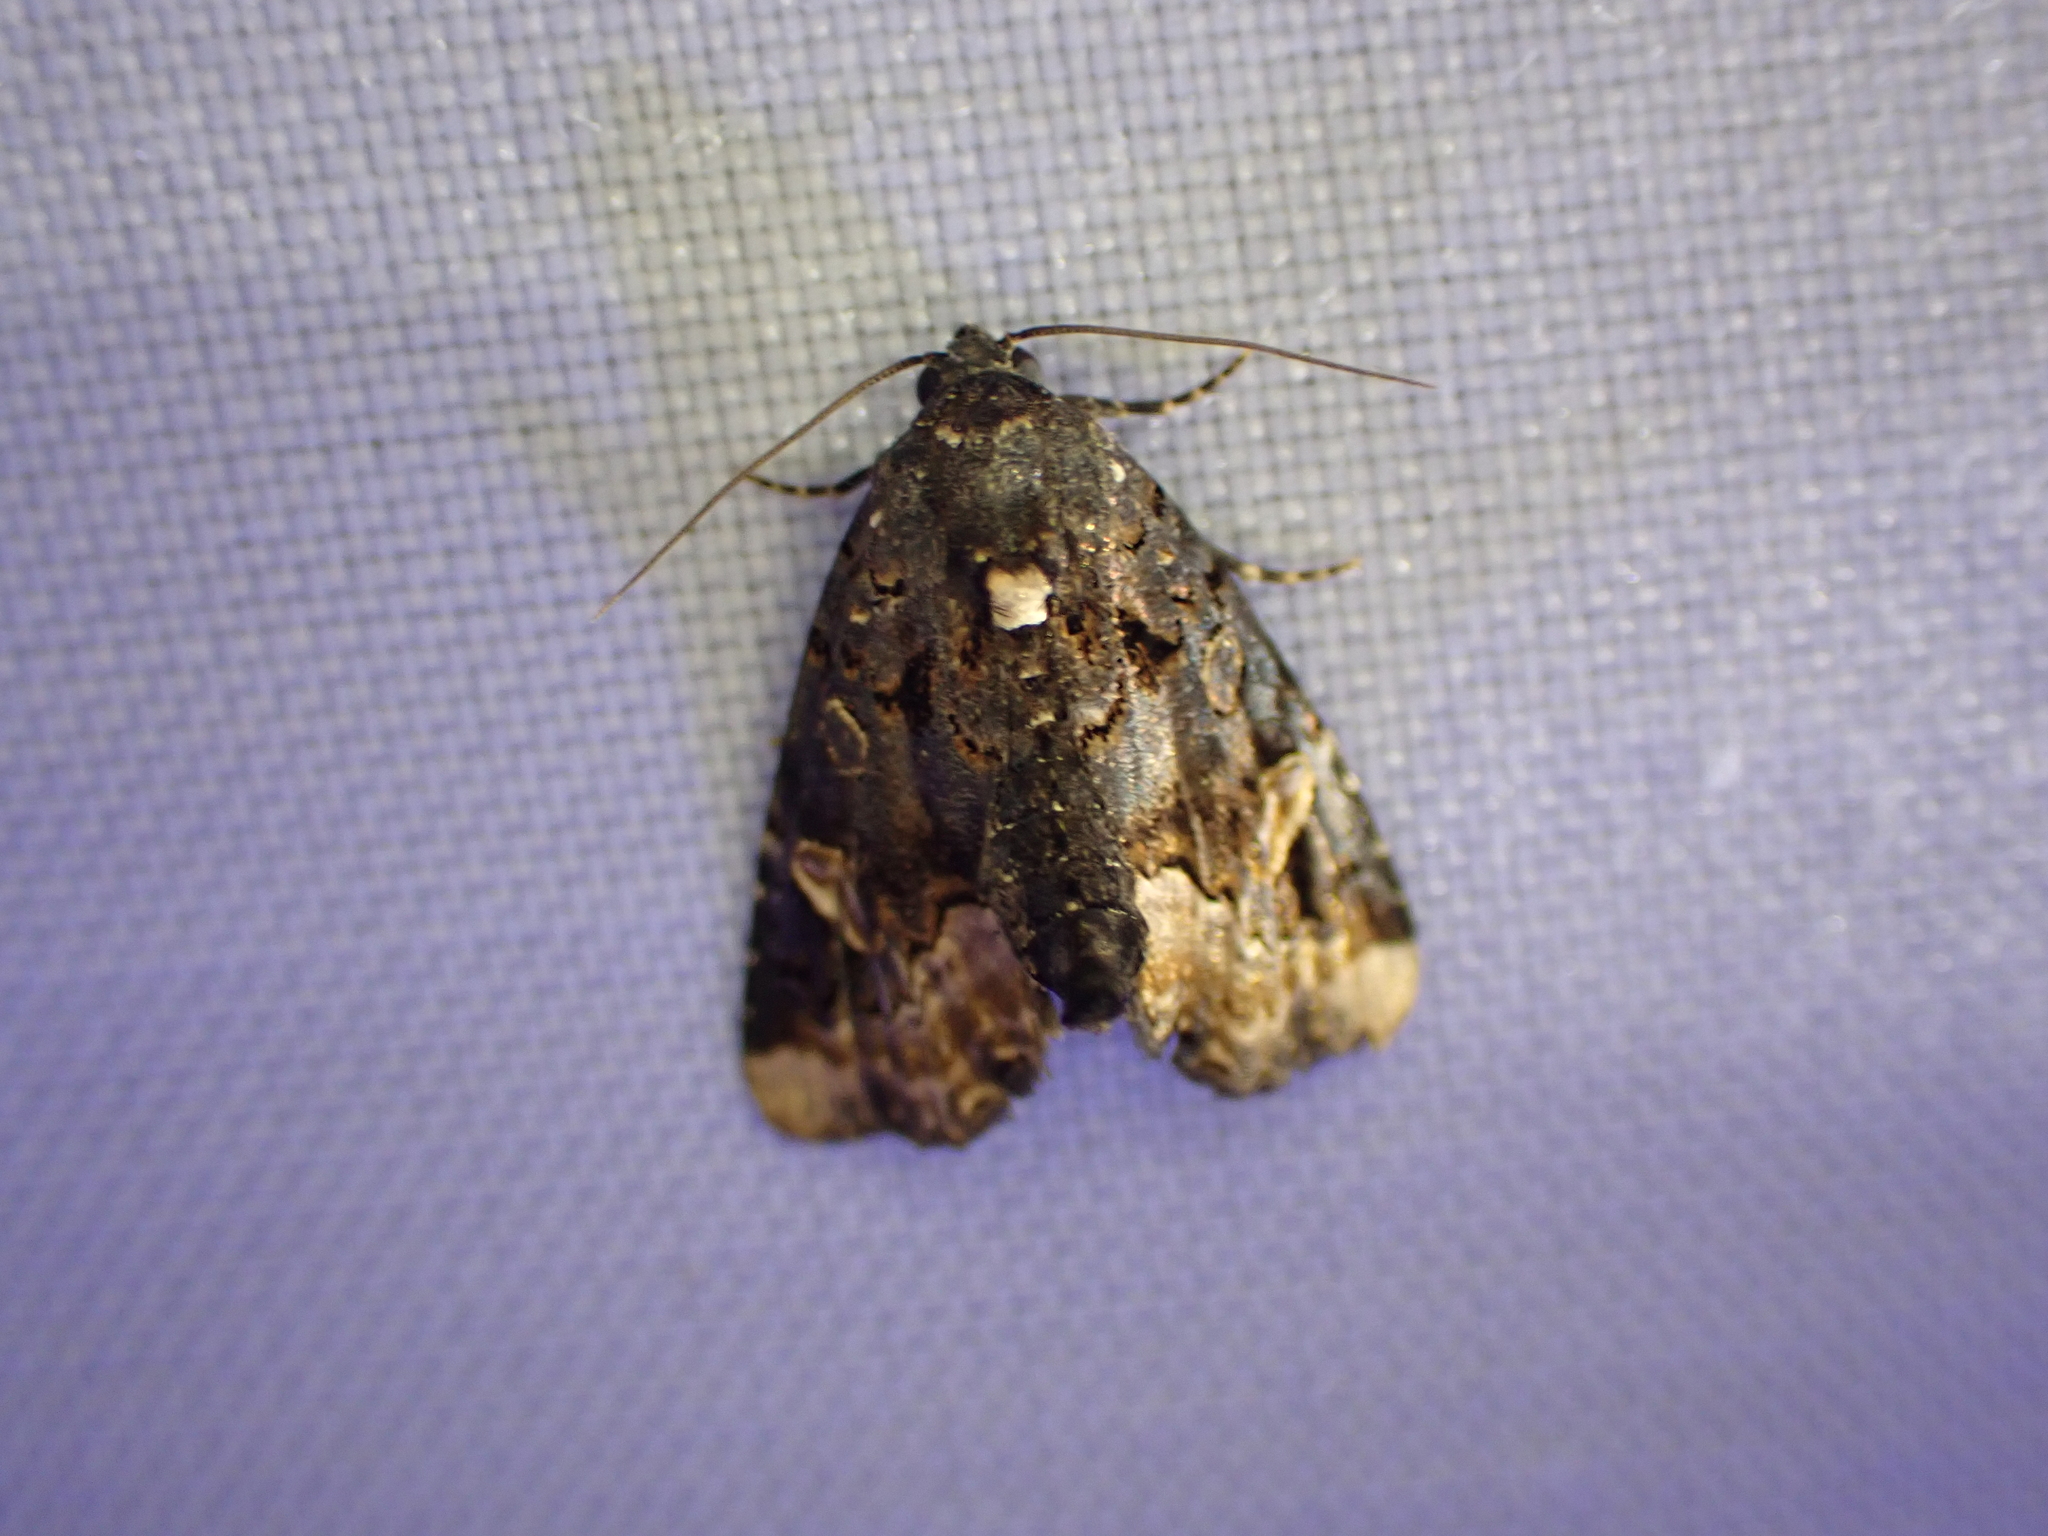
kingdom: Animalia
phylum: Arthropoda
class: Insecta
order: Lepidoptera
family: Noctuidae
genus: Homophoberia
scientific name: Homophoberia apicosa
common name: Black wedge-spot
